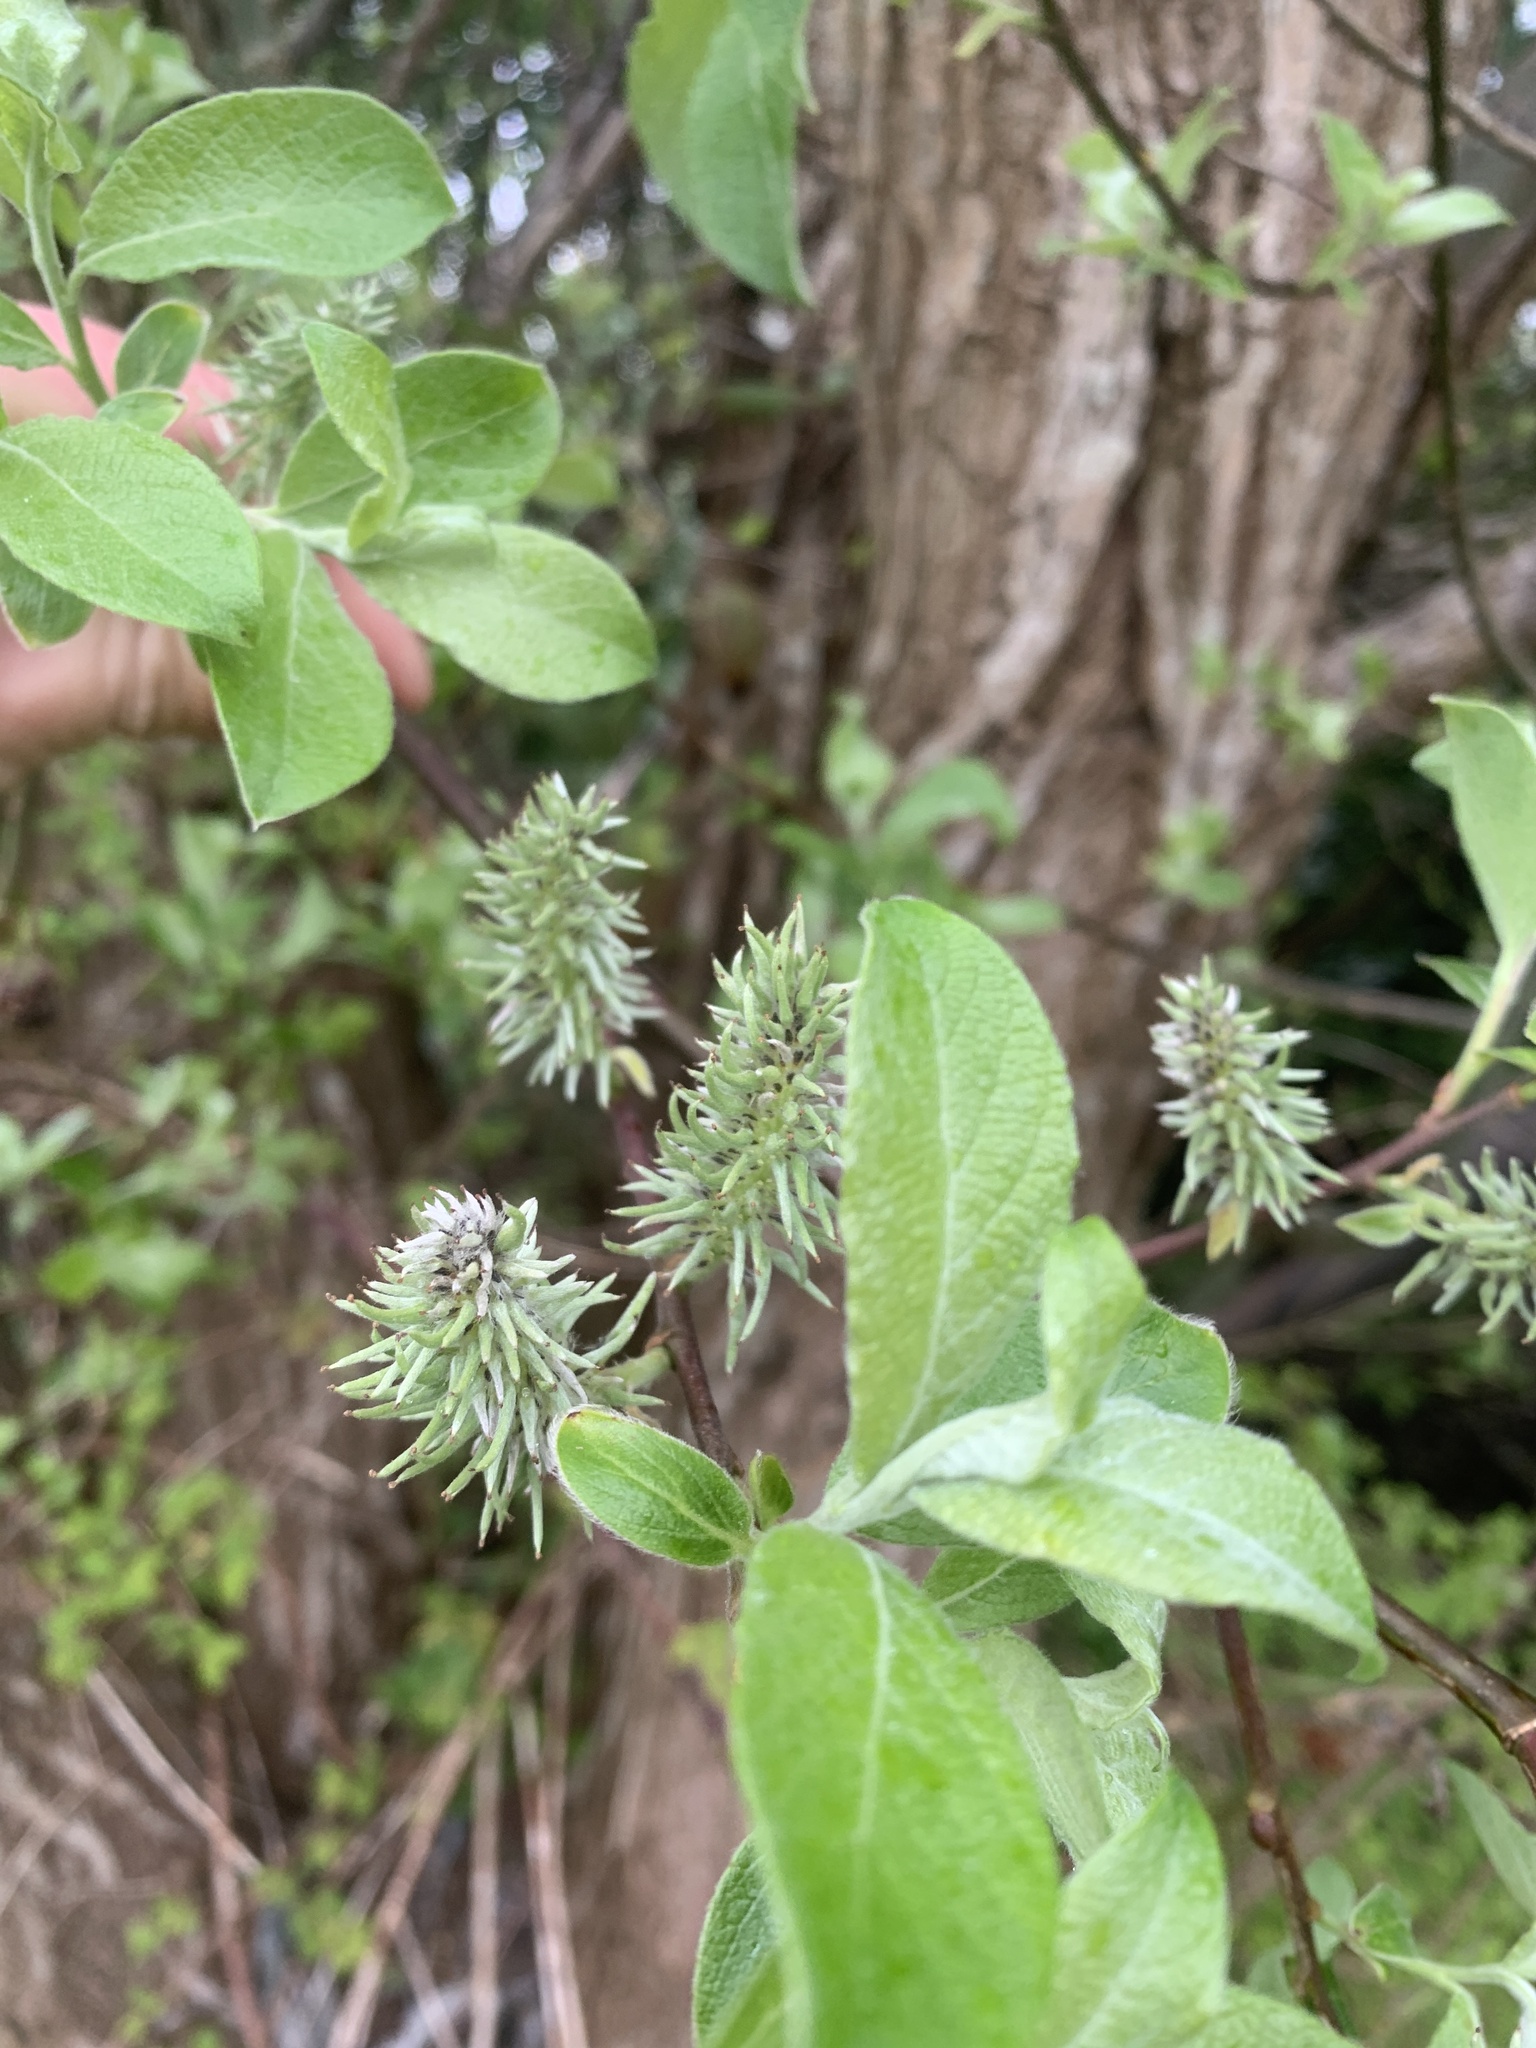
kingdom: Plantae
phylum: Tracheophyta
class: Magnoliopsida
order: Malpighiales
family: Salicaceae
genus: Salix
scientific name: Salix caprea
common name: Goat willow
